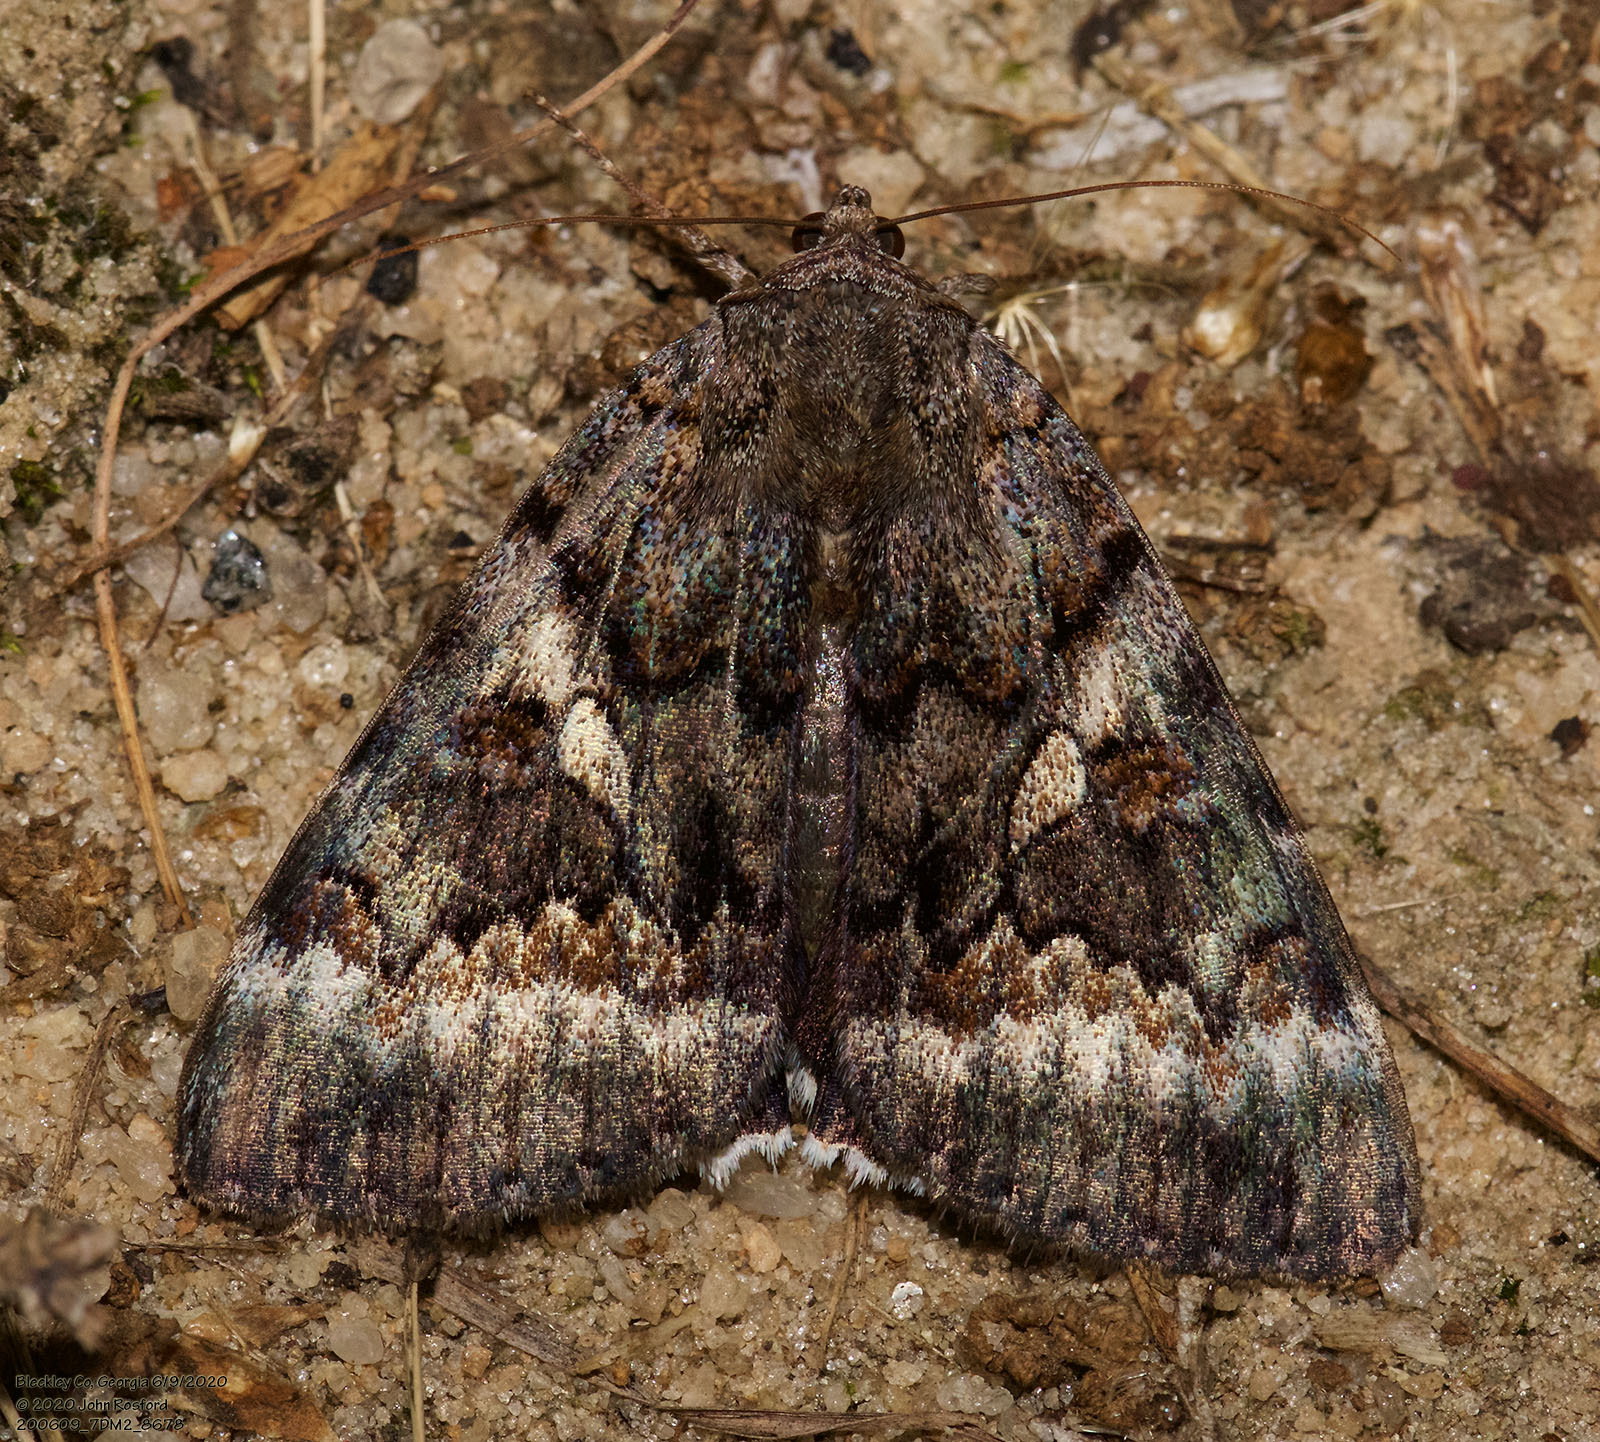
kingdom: Animalia
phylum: Arthropoda
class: Insecta
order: Lepidoptera
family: Erebidae
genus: Catocala
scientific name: Catocala epione
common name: Epione underwing
